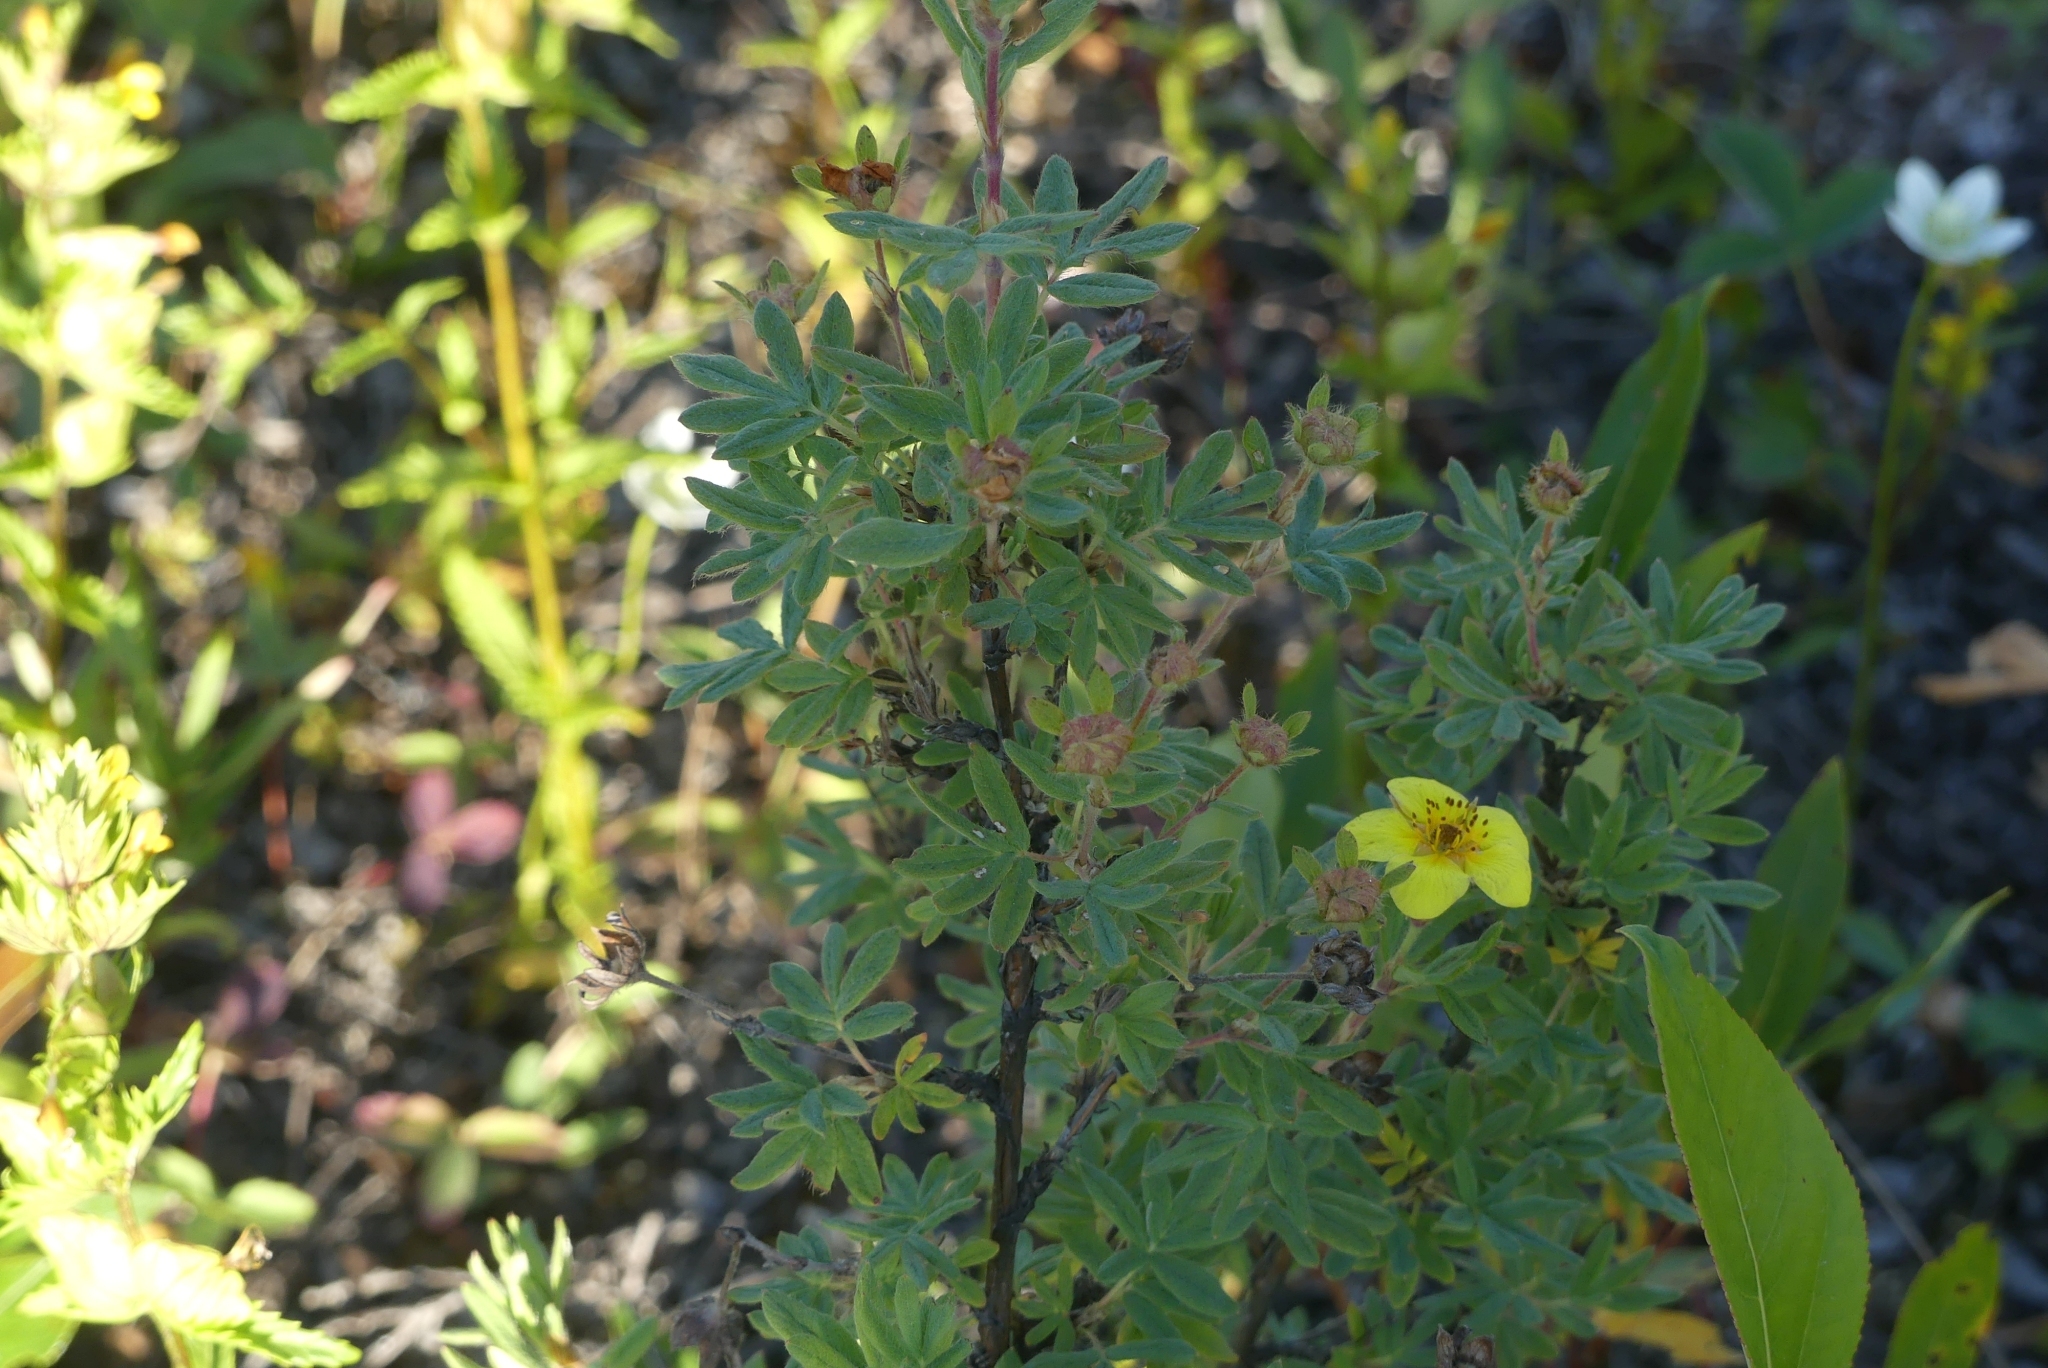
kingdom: Plantae
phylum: Tracheophyta
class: Magnoliopsida
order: Rosales
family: Rosaceae
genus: Dasiphora
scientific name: Dasiphora fruticosa
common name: Shrubby cinquefoil
